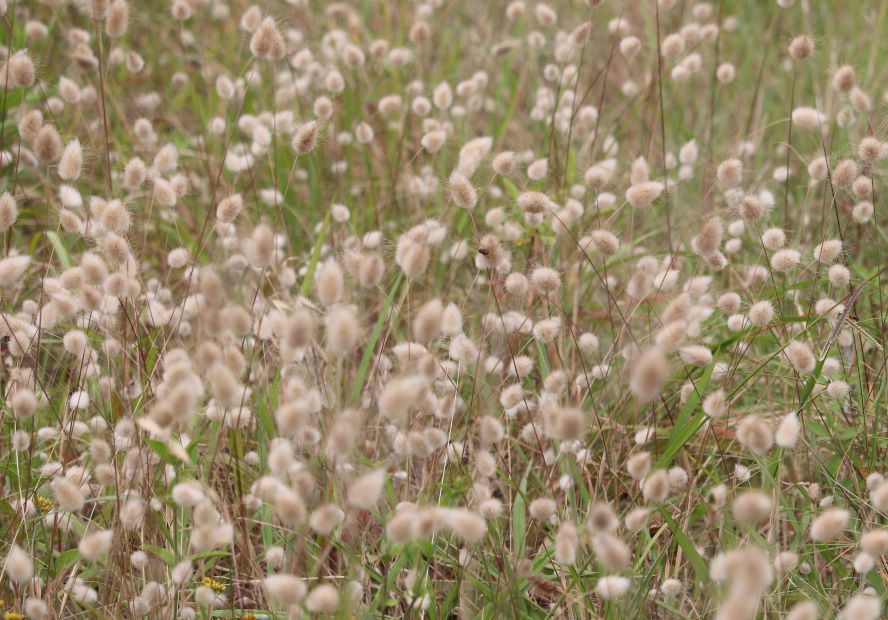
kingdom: Plantae
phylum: Tracheophyta
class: Liliopsida
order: Poales
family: Poaceae
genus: Lagurus
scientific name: Lagurus ovatus
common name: Hare's-tail
